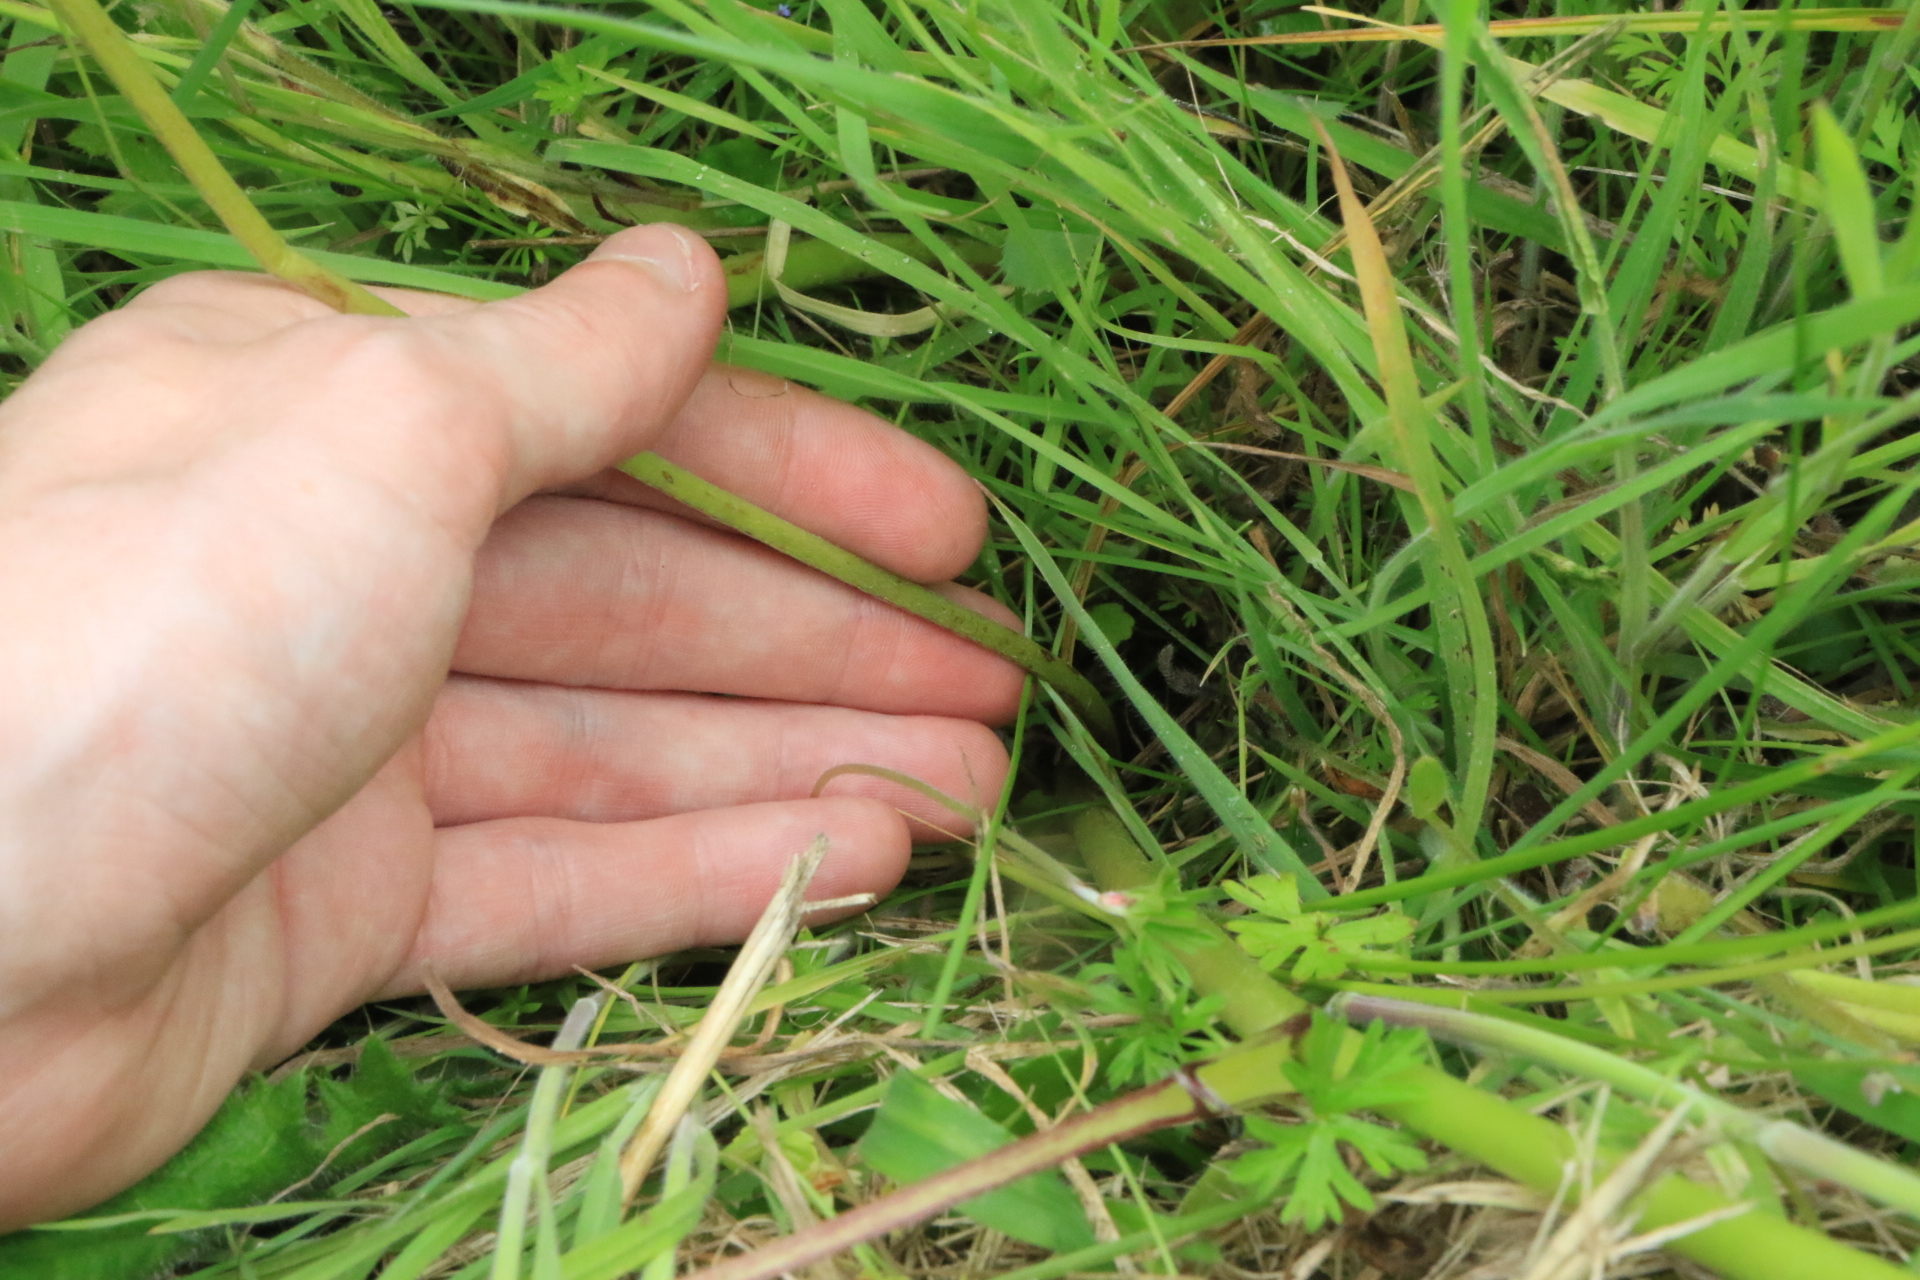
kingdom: Plantae
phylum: Tracheophyta
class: Magnoliopsida
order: Fabales
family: Fabaceae
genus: Lupinus
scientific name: Lupinus polyphyllus
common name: Garden lupin
